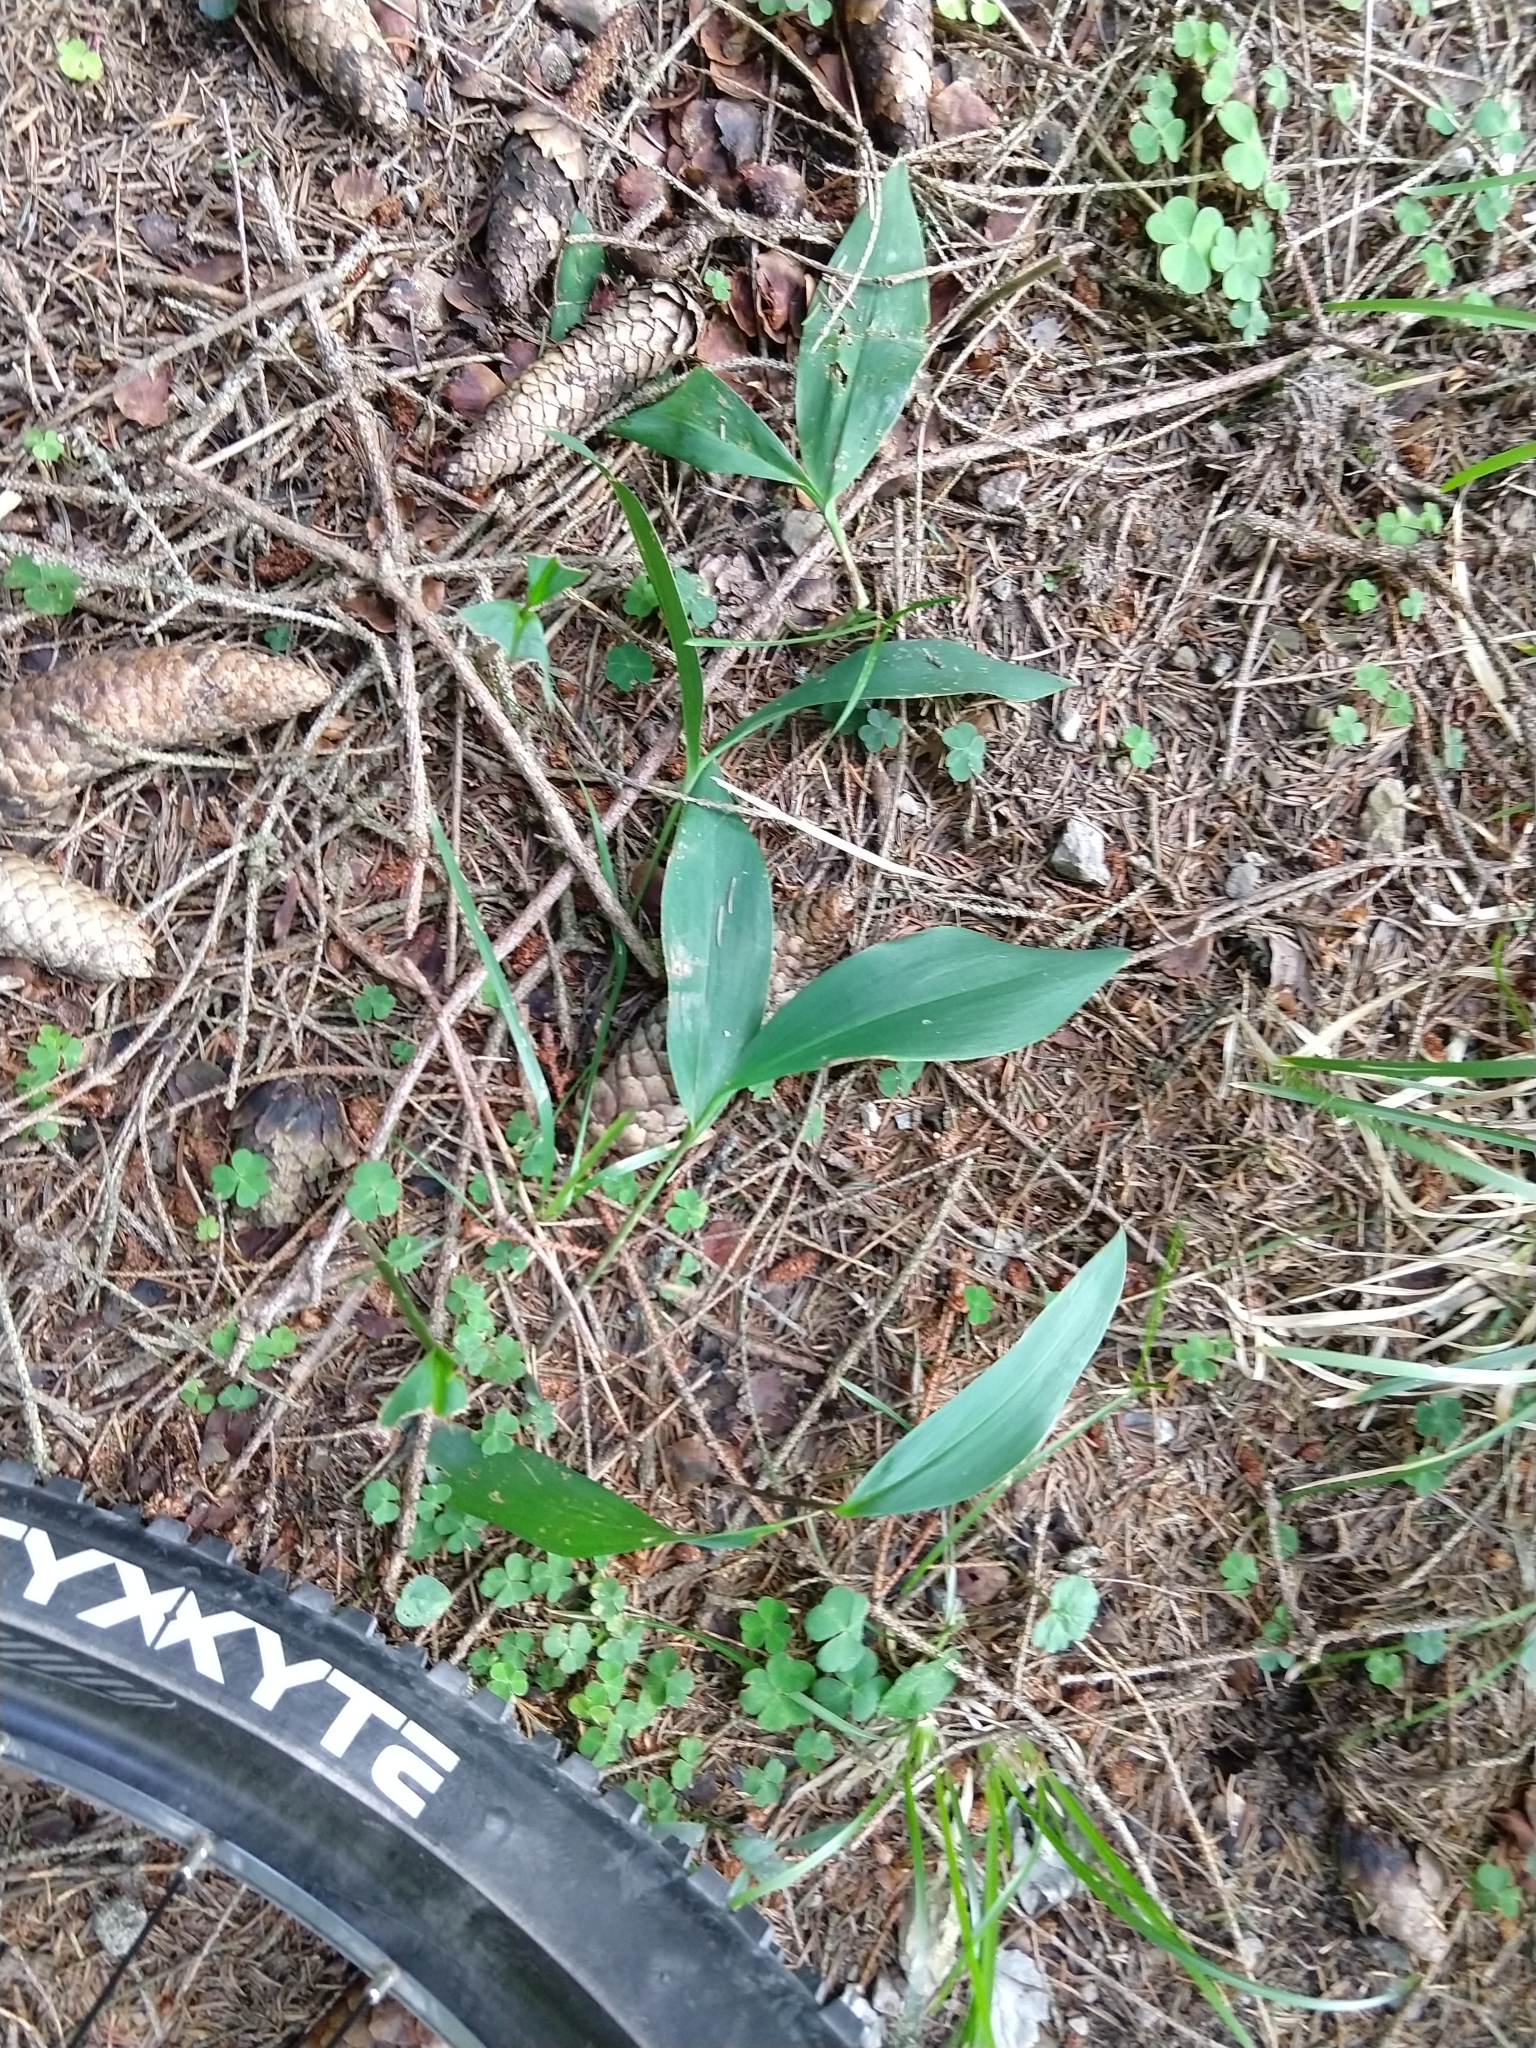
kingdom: Plantae
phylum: Tracheophyta
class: Liliopsida
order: Asparagales
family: Asparagaceae
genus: Convallaria
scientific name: Convallaria majalis
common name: Lily-of-the-valley
